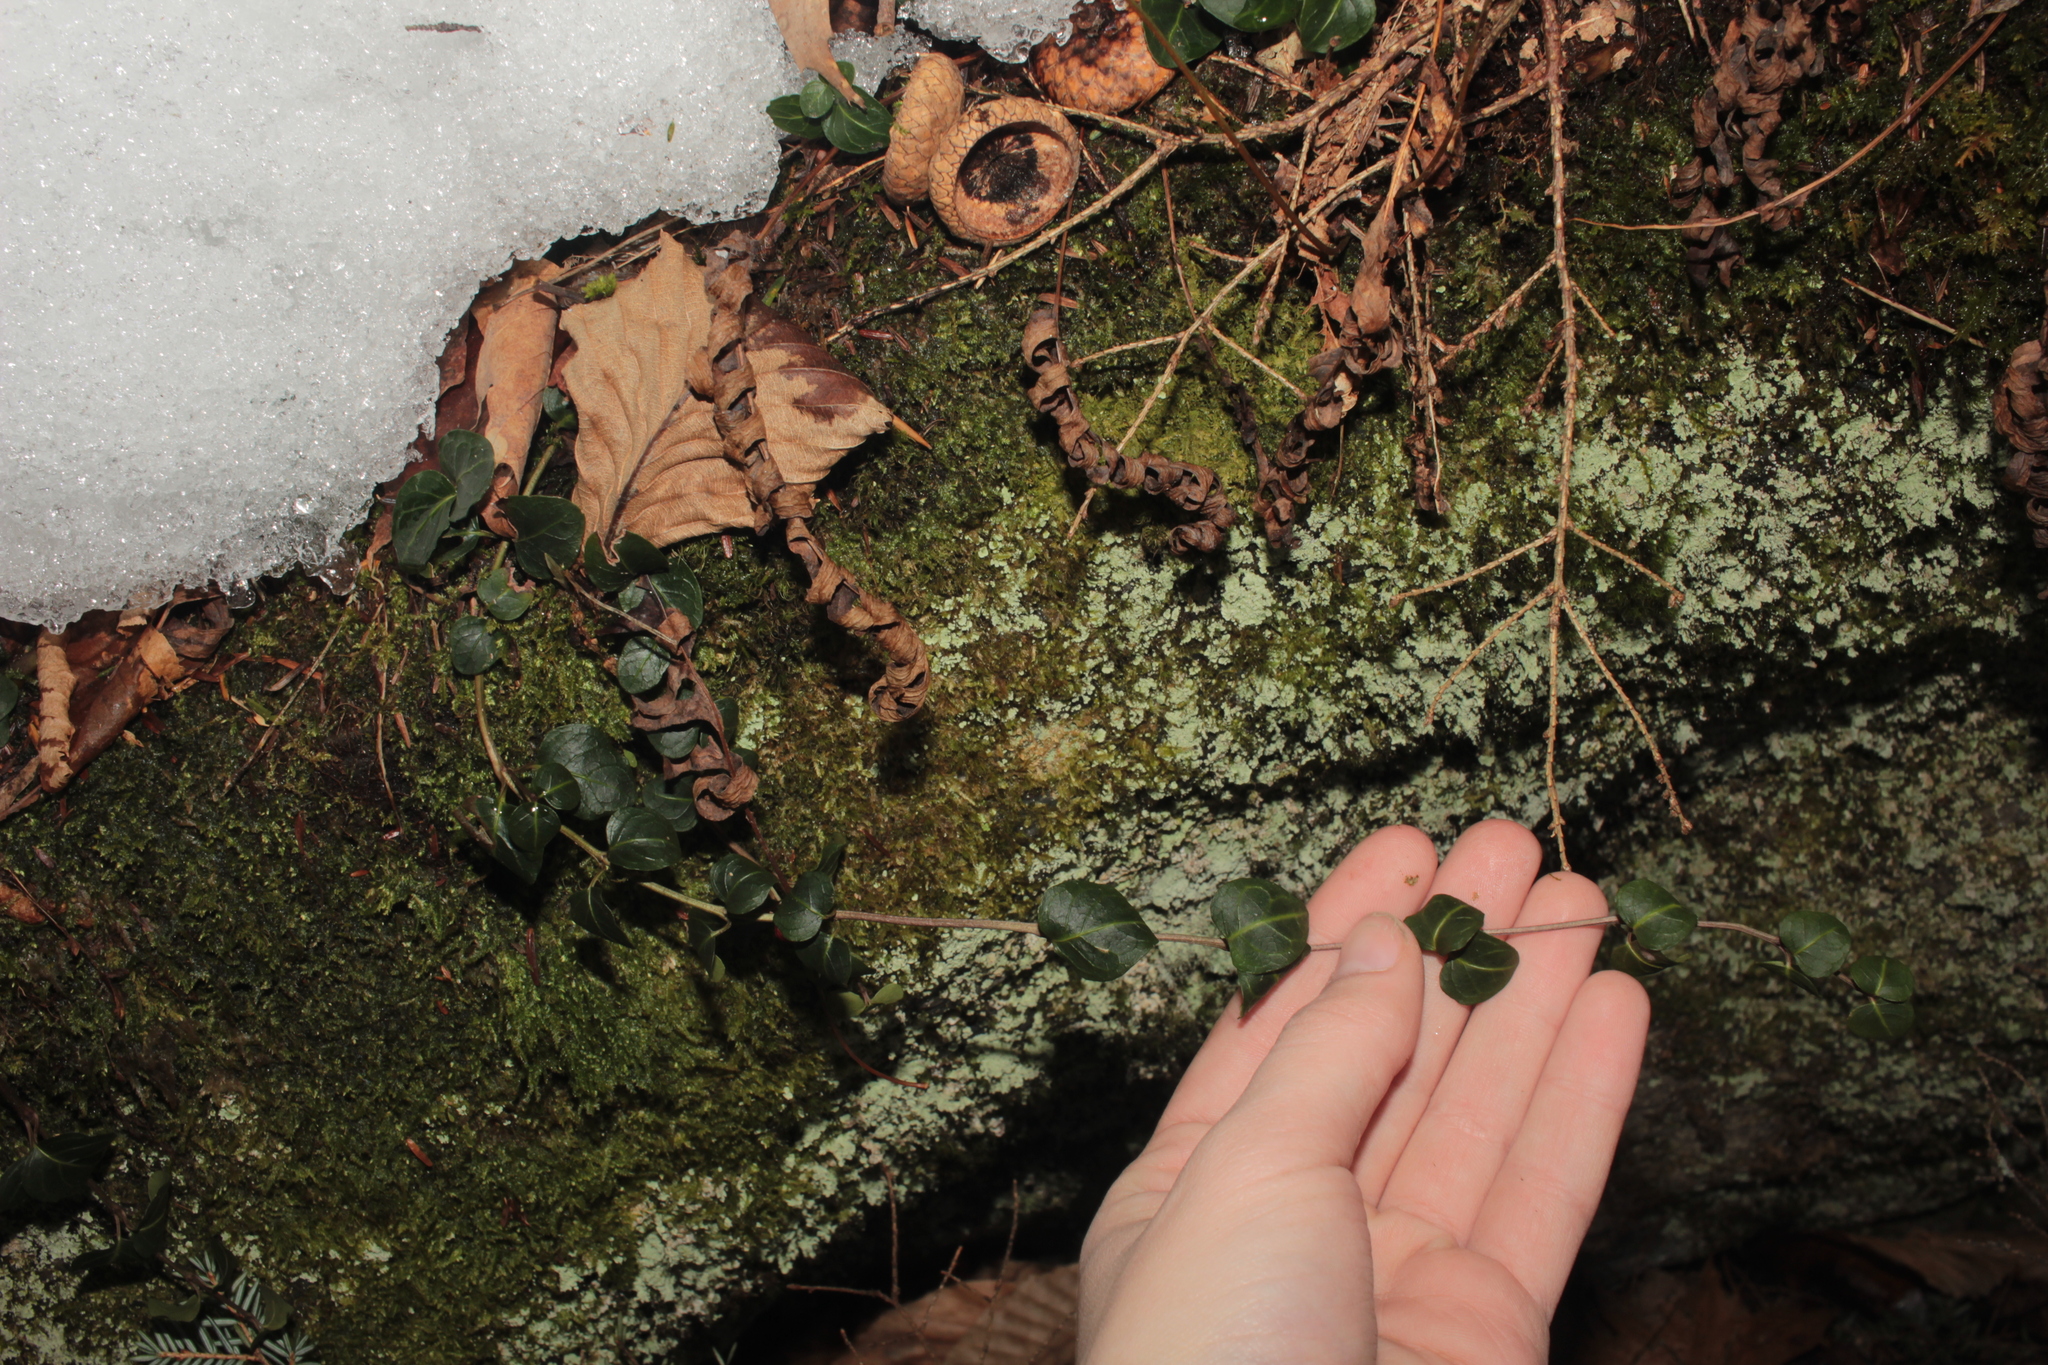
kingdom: Plantae
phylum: Tracheophyta
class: Magnoliopsida
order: Gentianales
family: Rubiaceae
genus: Mitchella
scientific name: Mitchella repens
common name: Partridge-berry
